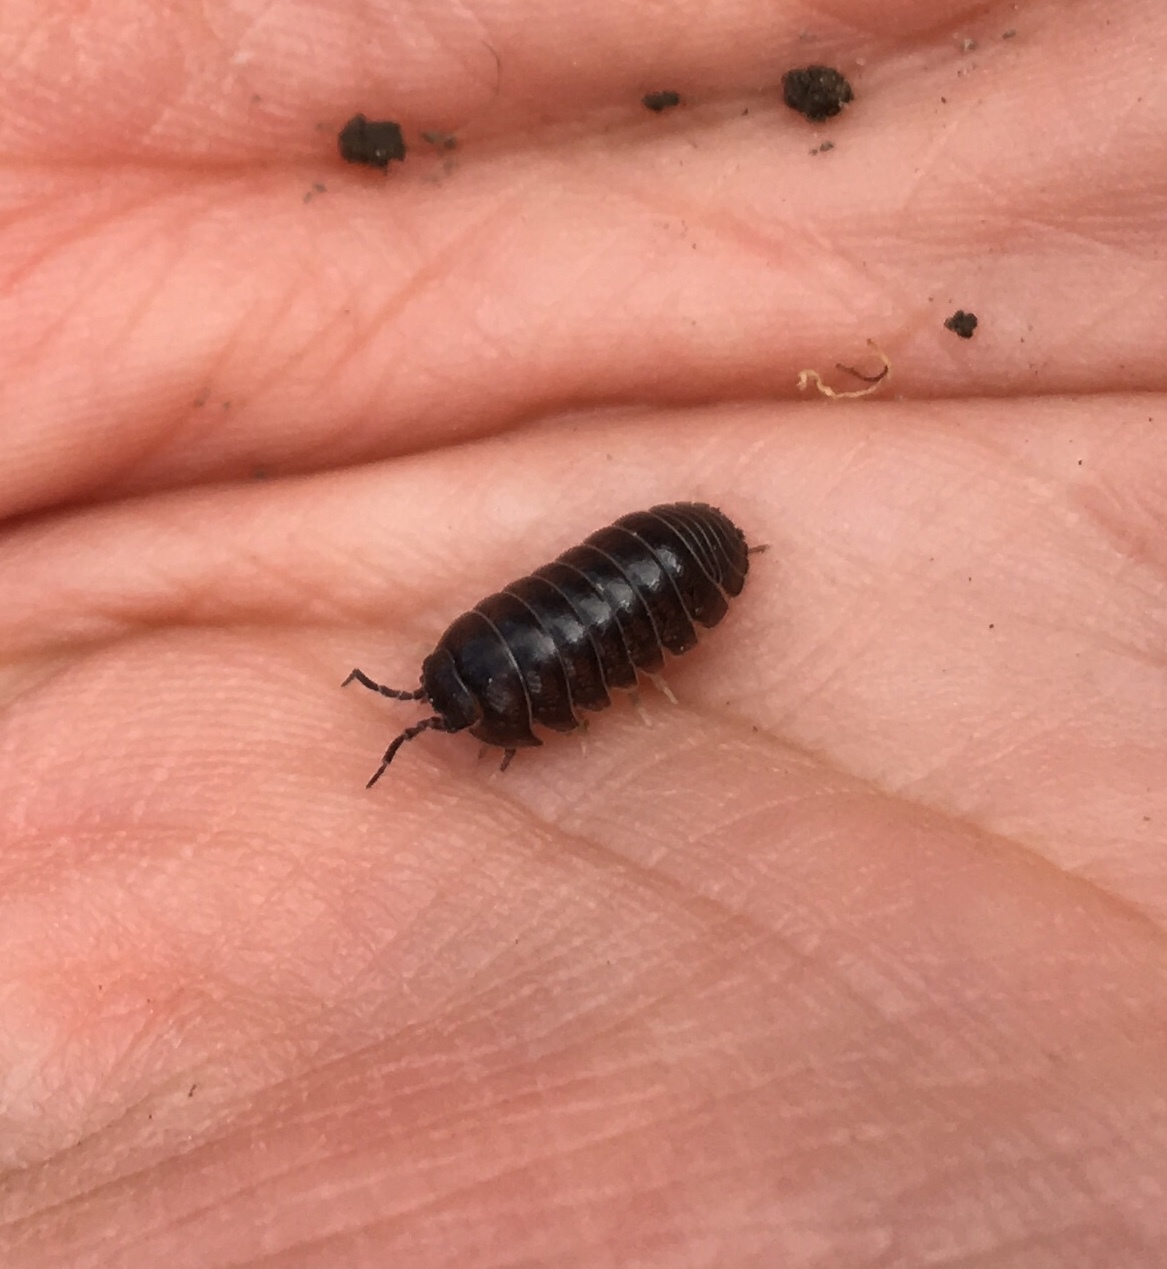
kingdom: Animalia
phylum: Arthropoda
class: Malacostraca
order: Isopoda
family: Armadillidiidae
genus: Armadillidium
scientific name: Armadillidium vulgare
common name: Common pill woodlouse
